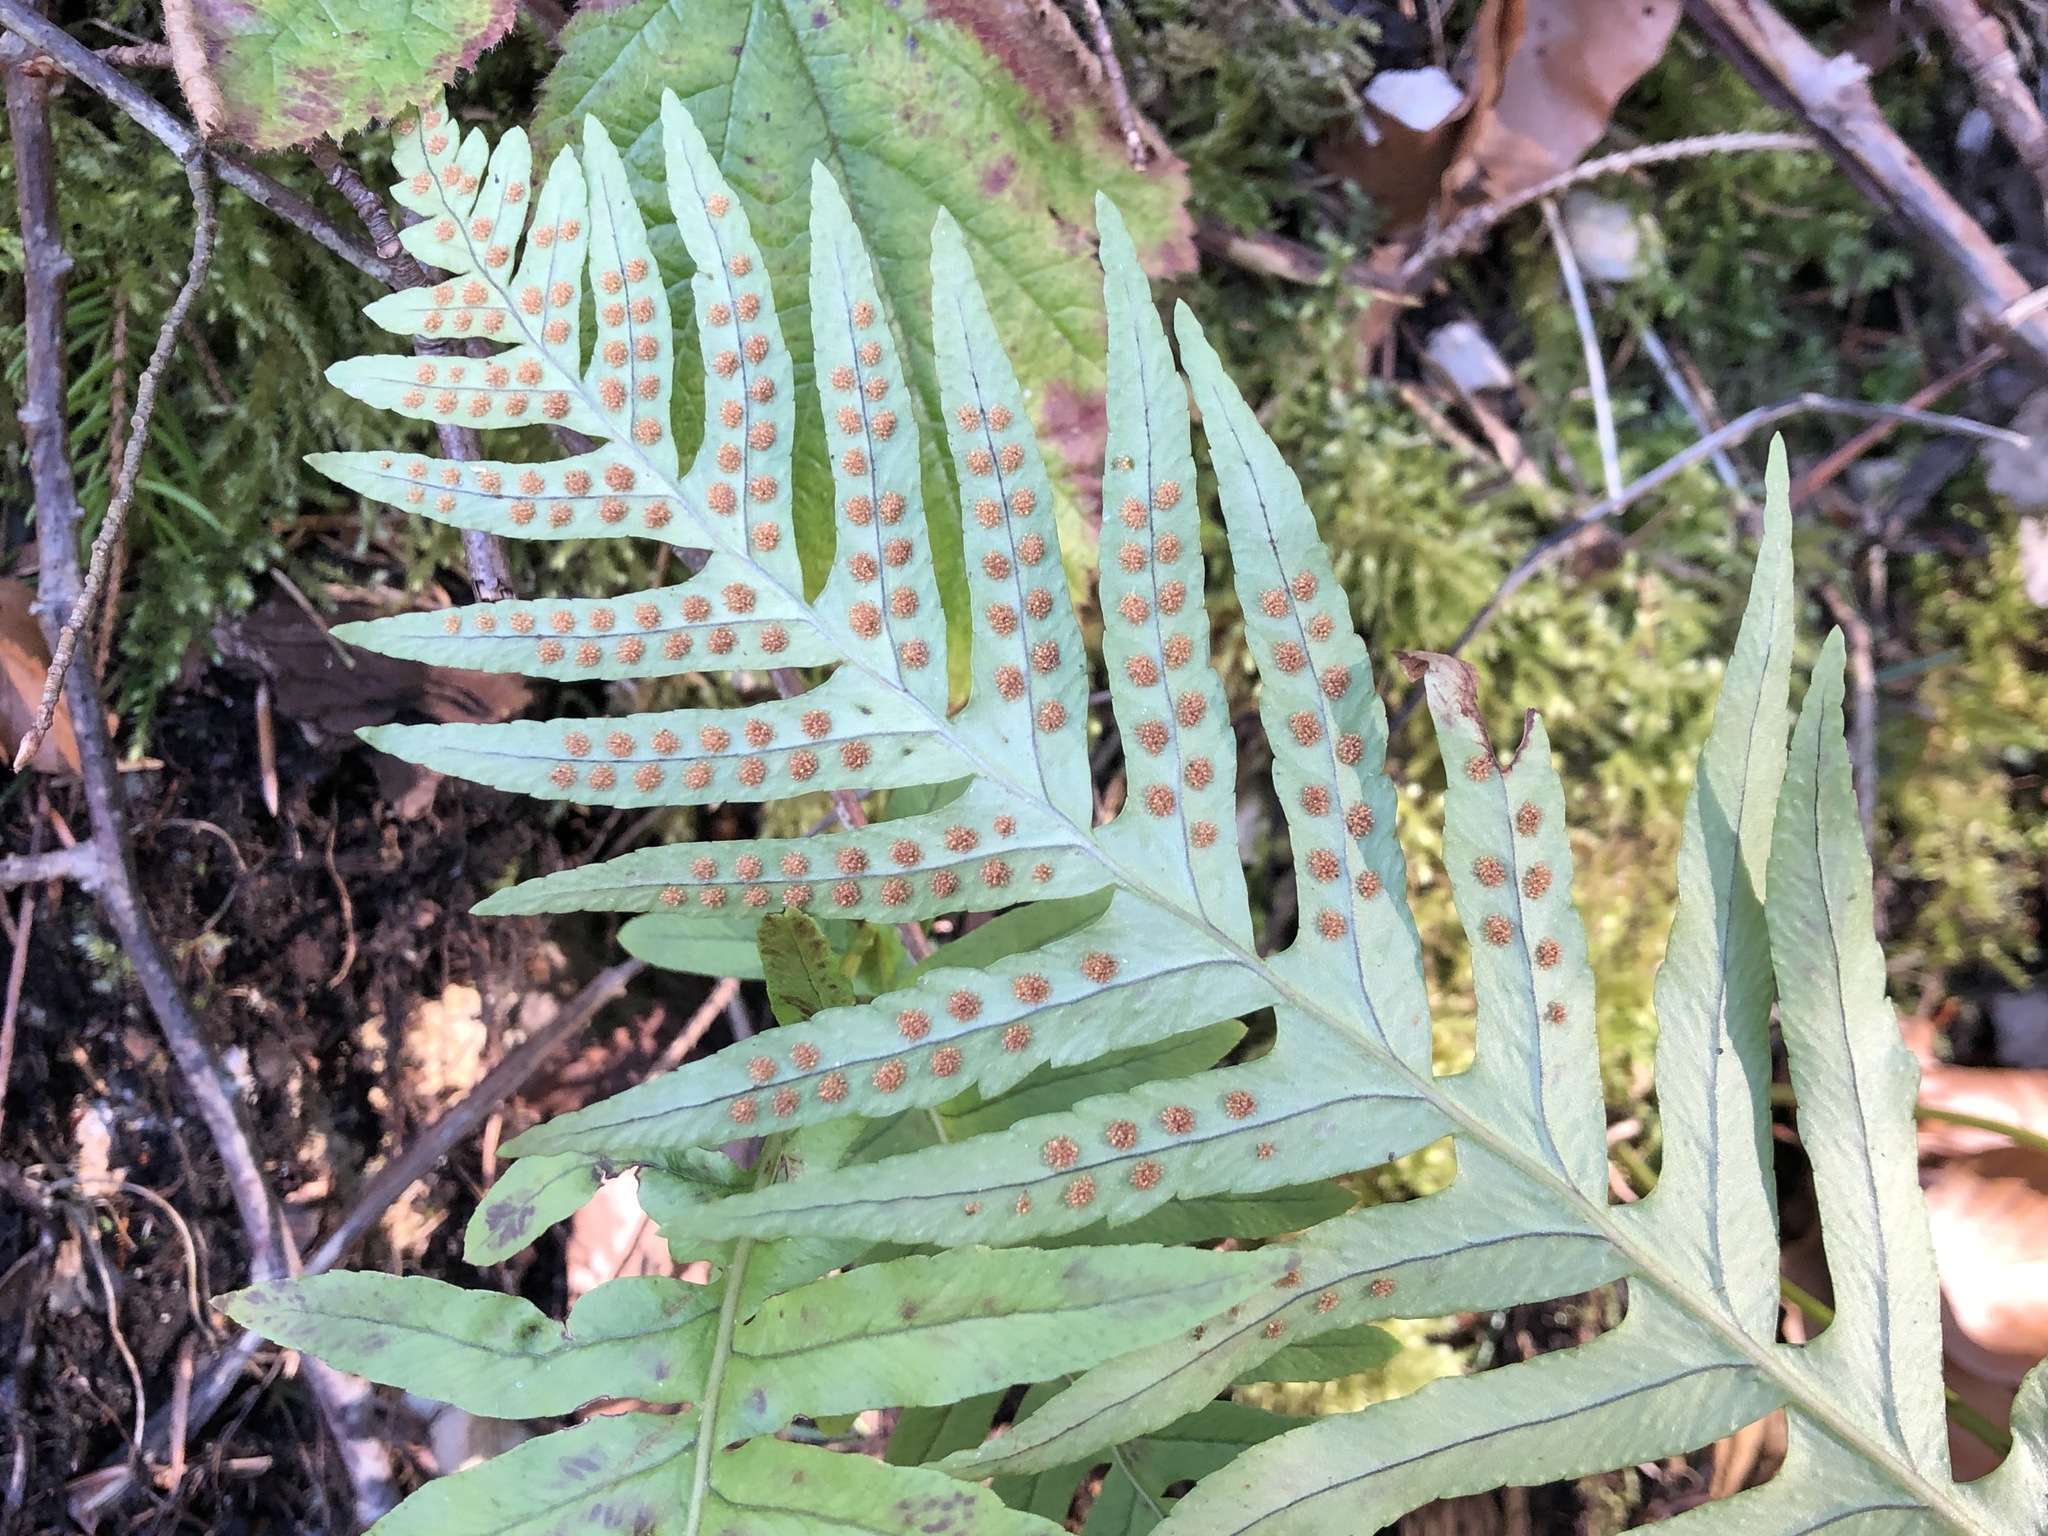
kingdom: Plantae
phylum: Tracheophyta
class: Polypodiopsida
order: Polypodiales
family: Polypodiaceae
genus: Polypodium
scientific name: Polypodium vulgare
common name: Common polypody
